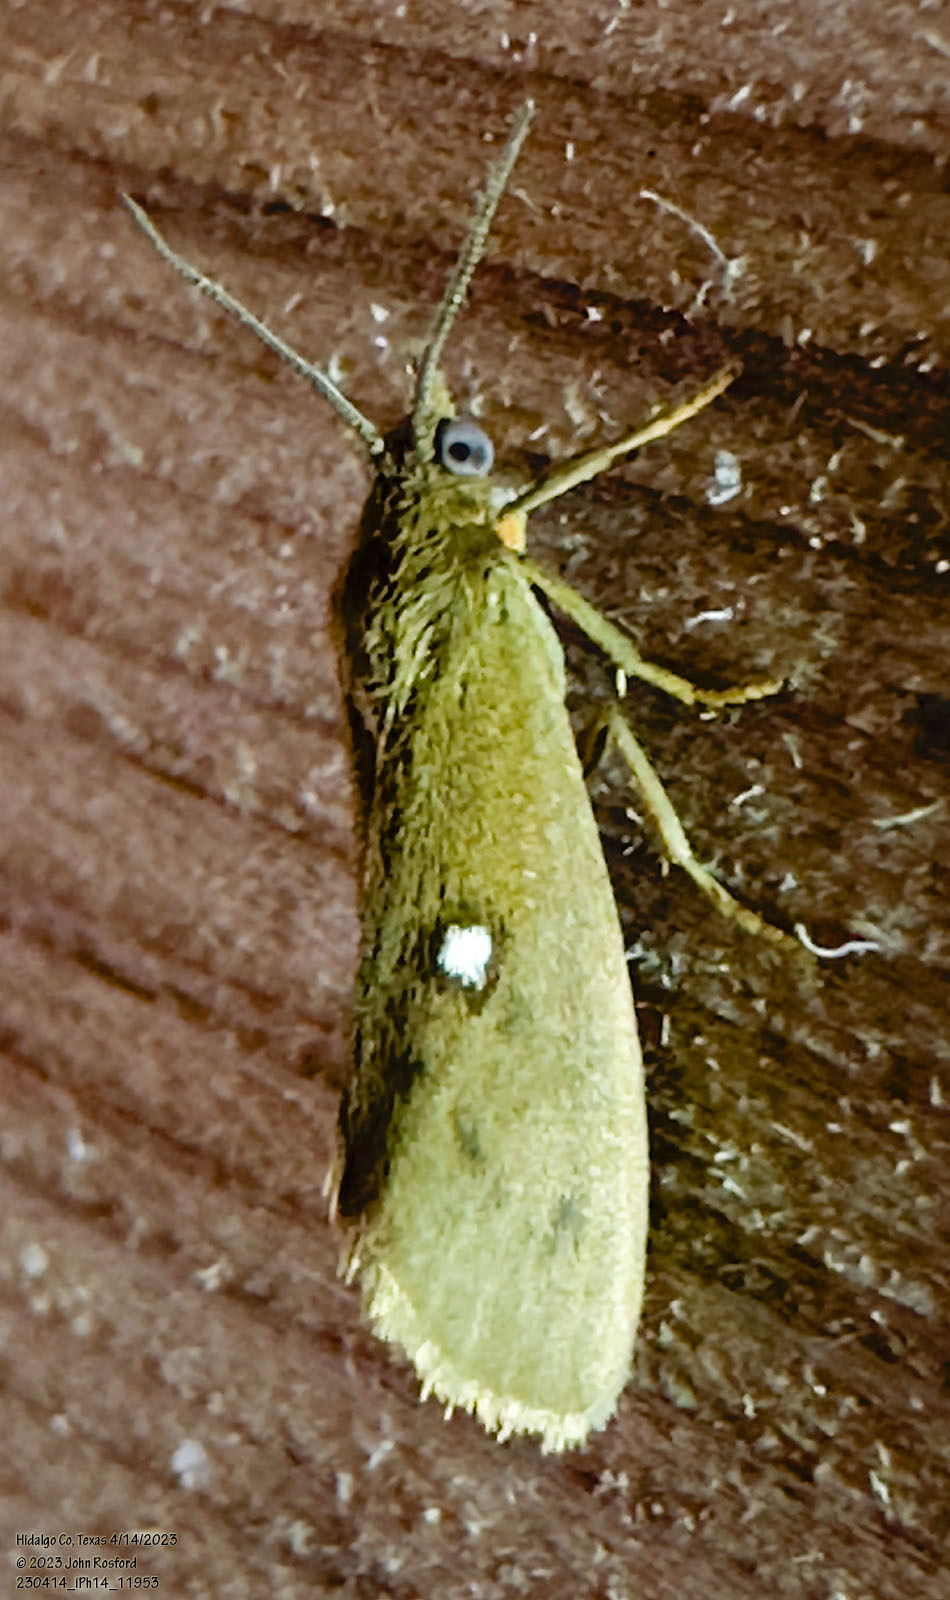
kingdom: Animalia
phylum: Arthropoda
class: Insecta
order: Lepidoptera
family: Erebidae
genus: Virbia
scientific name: Virbia aurantiaca
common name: Orange virbia moth
